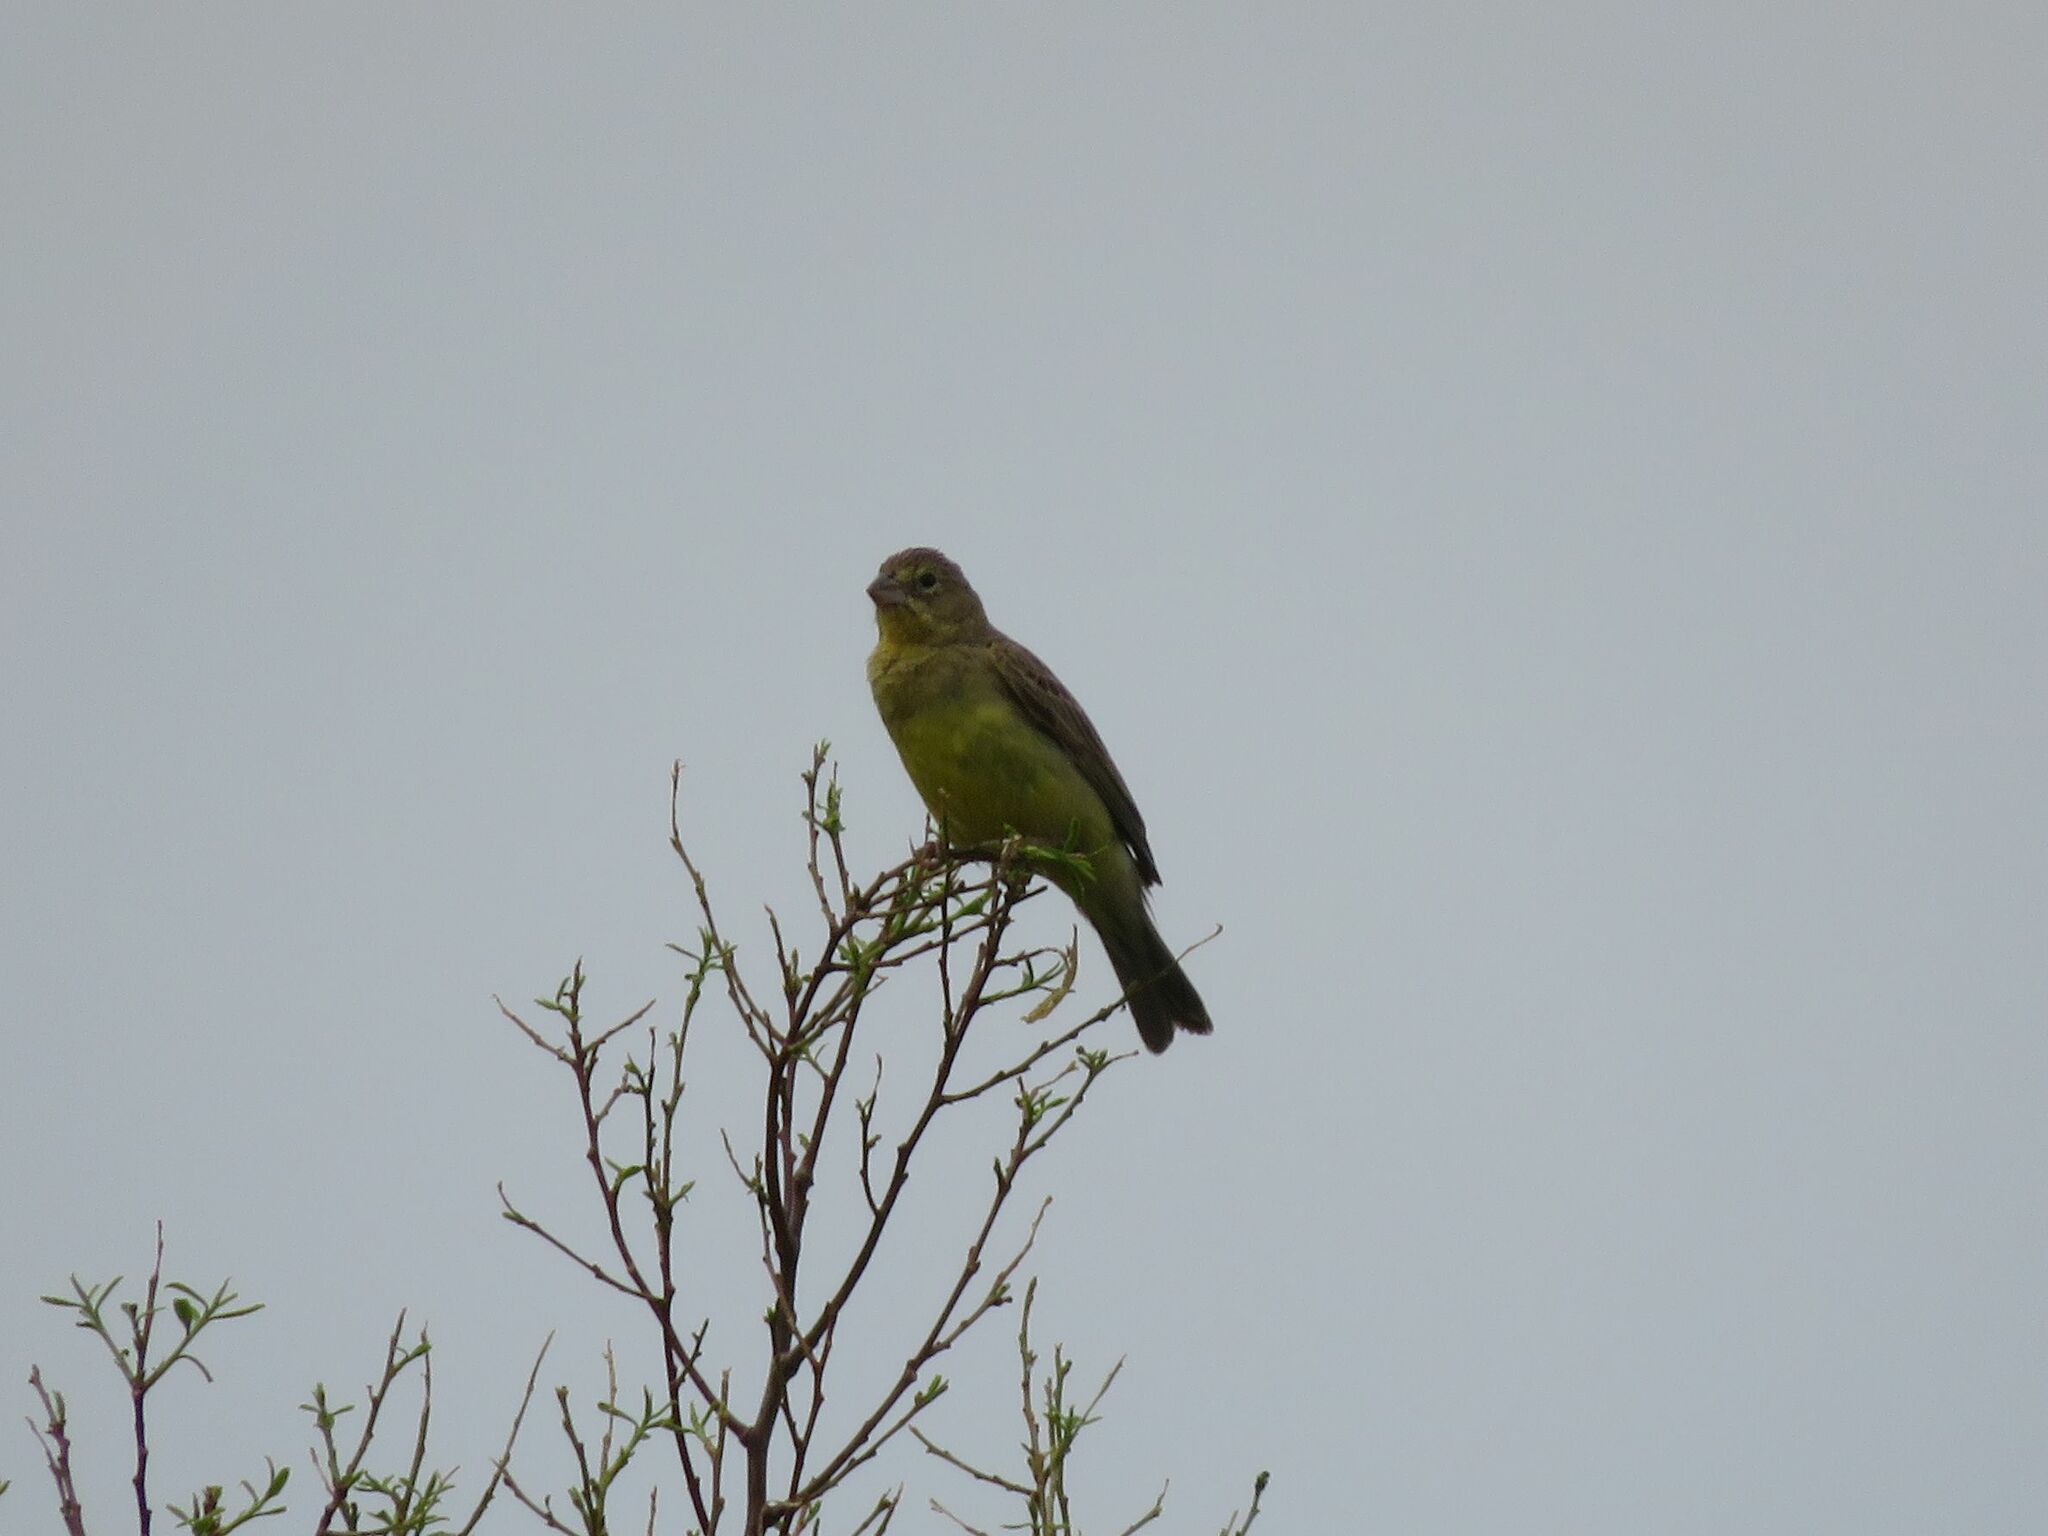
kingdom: Animalia
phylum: Chordata
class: Aves
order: Passeriformes
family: Thraupidae
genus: Sicalis
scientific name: Sicalis luteola
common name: Grassland yellow-finch
